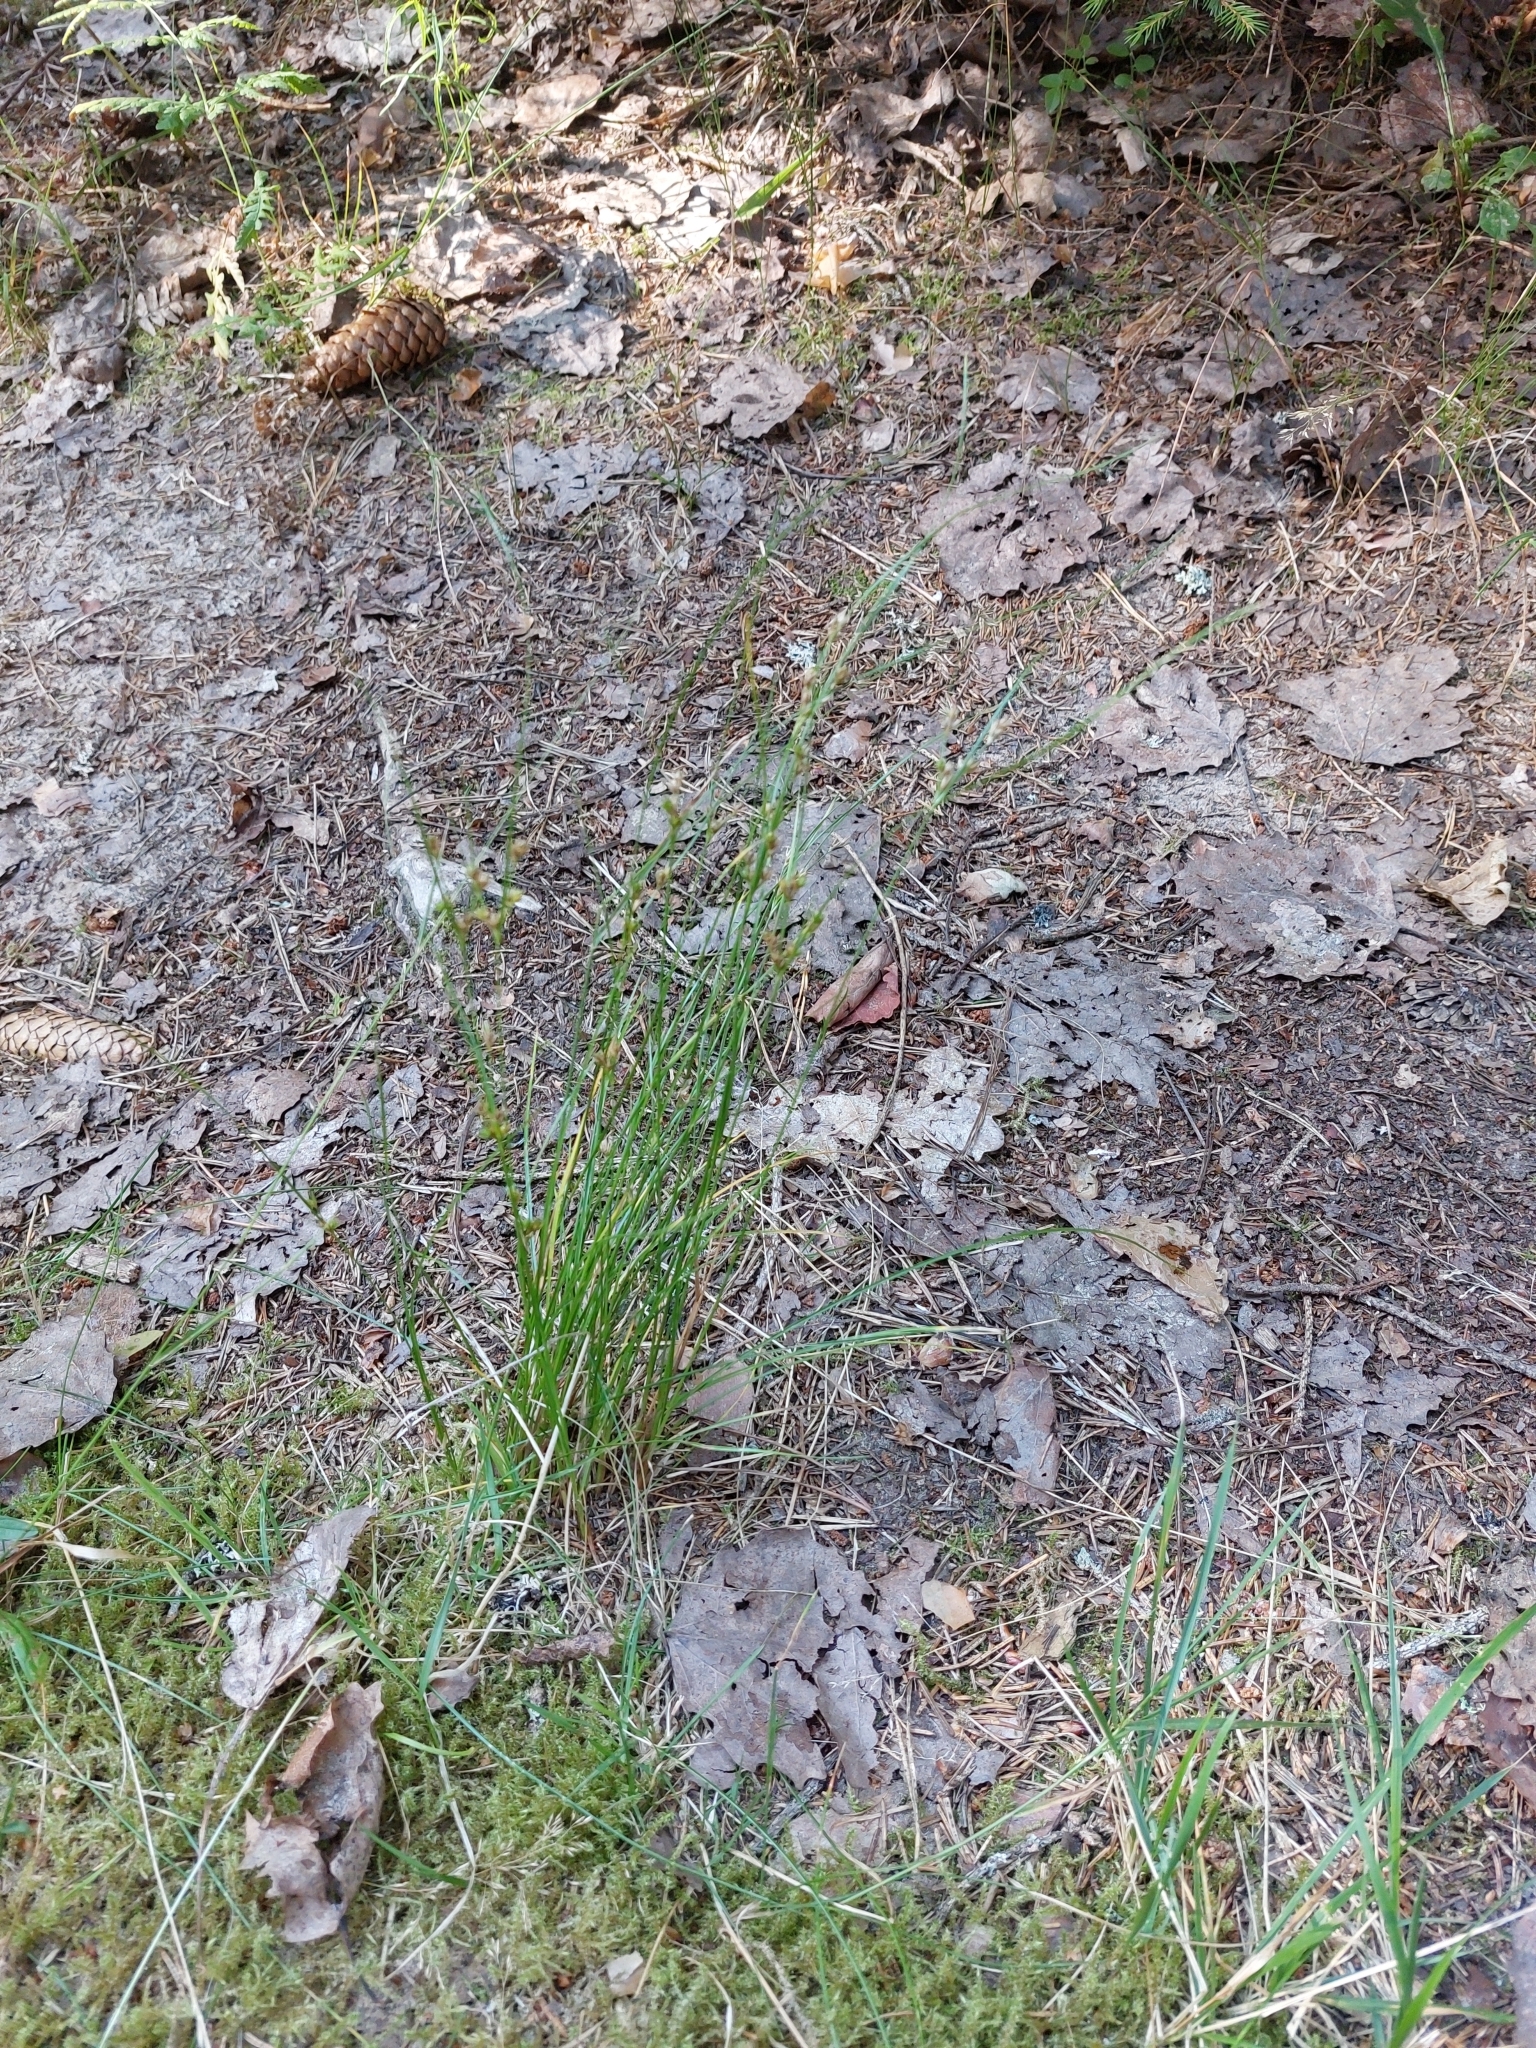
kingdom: Plantae
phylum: Tracheophyta
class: Liliopsida
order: Poales
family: Juncaceae
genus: Juncus
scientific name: Juncus tenuis
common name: Slender rush
